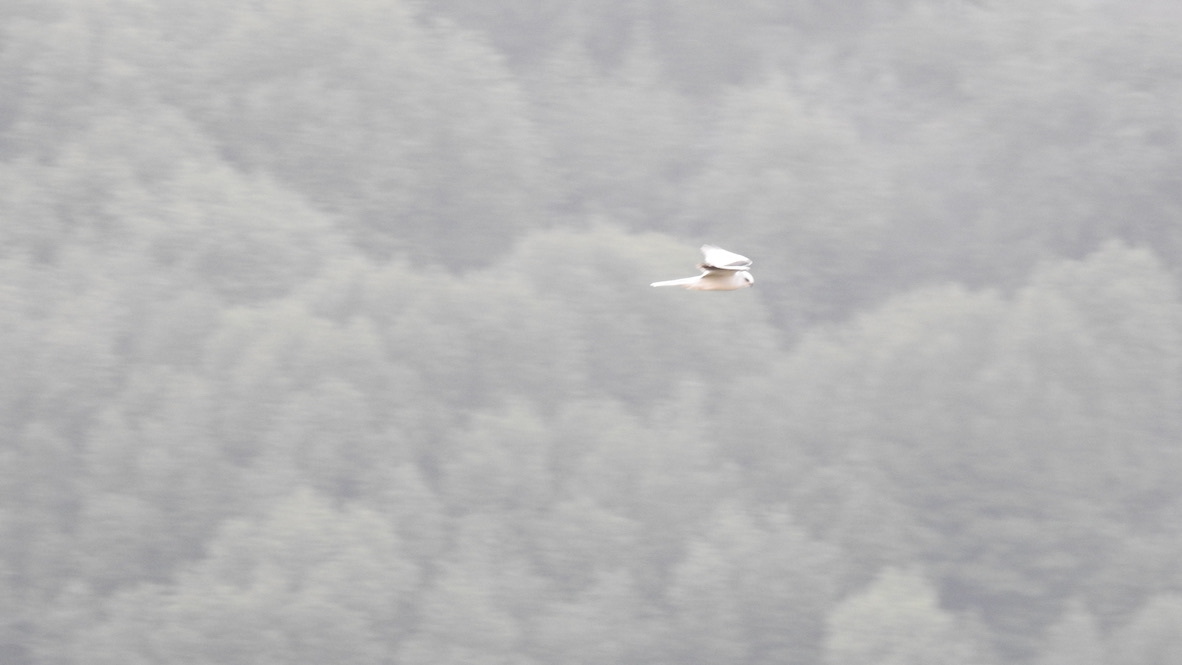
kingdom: Animalia
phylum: Chordata
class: Aves
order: Accipitriformes
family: Accipitridae
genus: Elanus
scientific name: Elanus leucurus
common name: White-tailed kite
